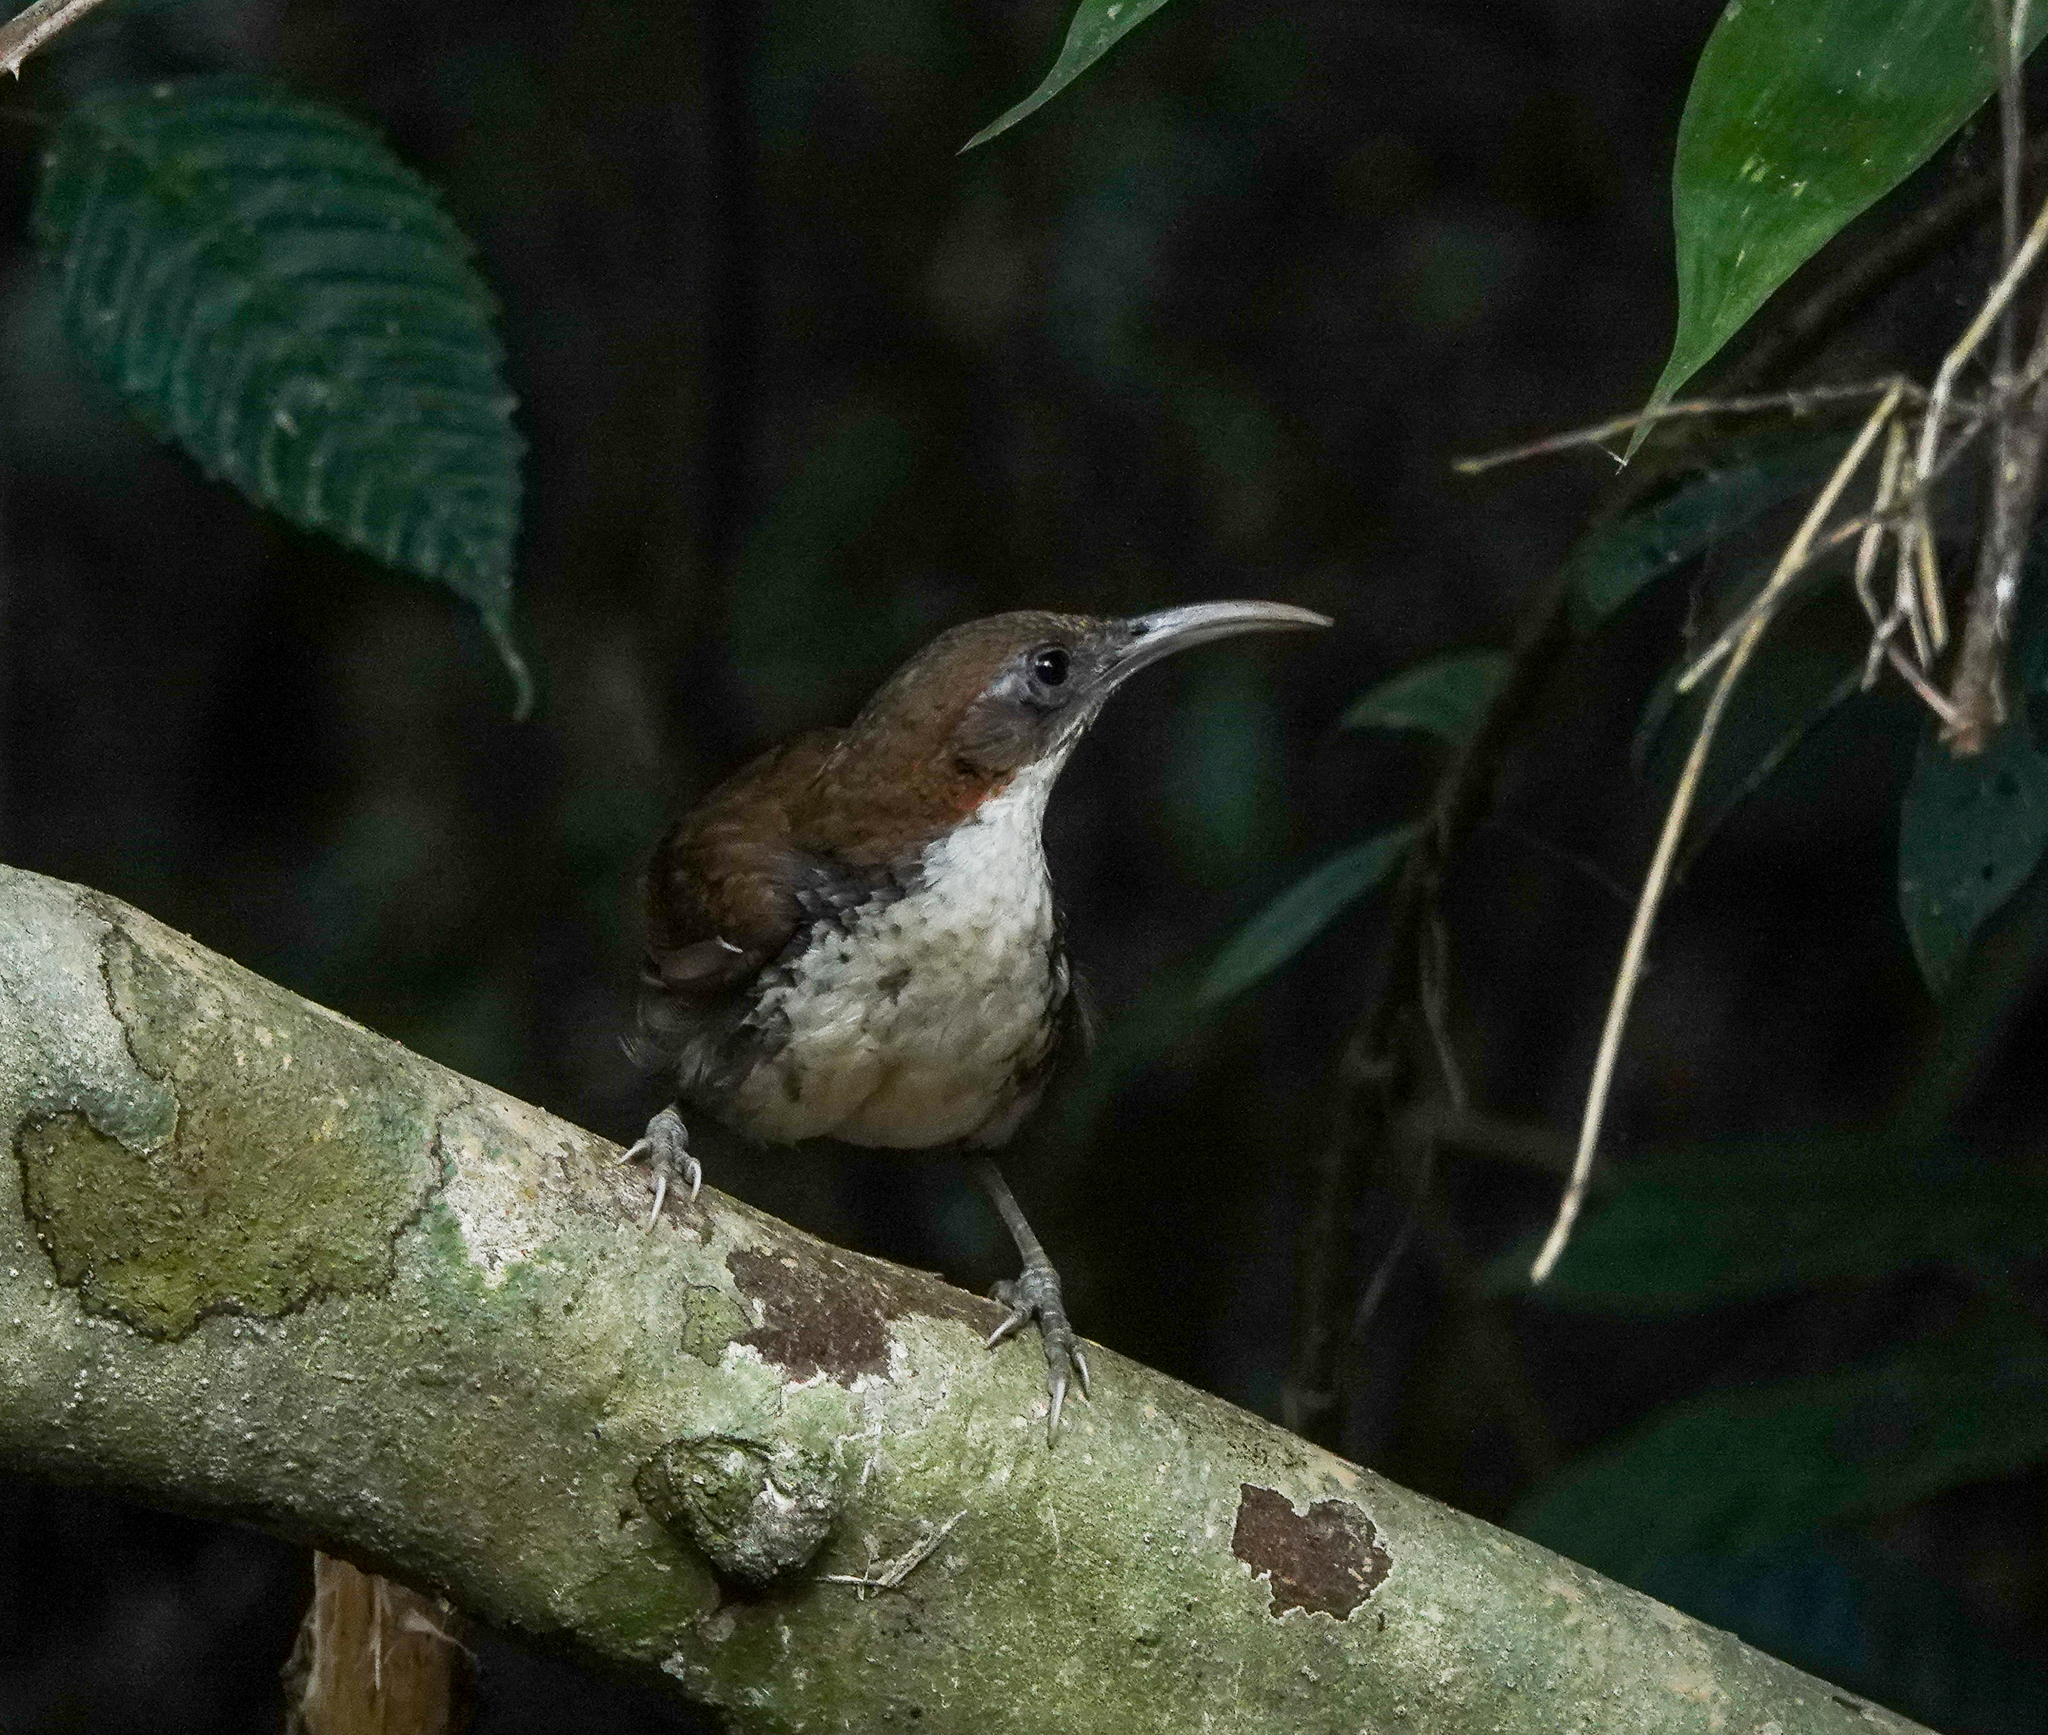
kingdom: Animalia
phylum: Chordata
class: Aves
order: Passeriformes
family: Timaliidae
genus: Pomatorhinus
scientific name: Pomatorhinus hypoleucos
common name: Large scimitar babbler
